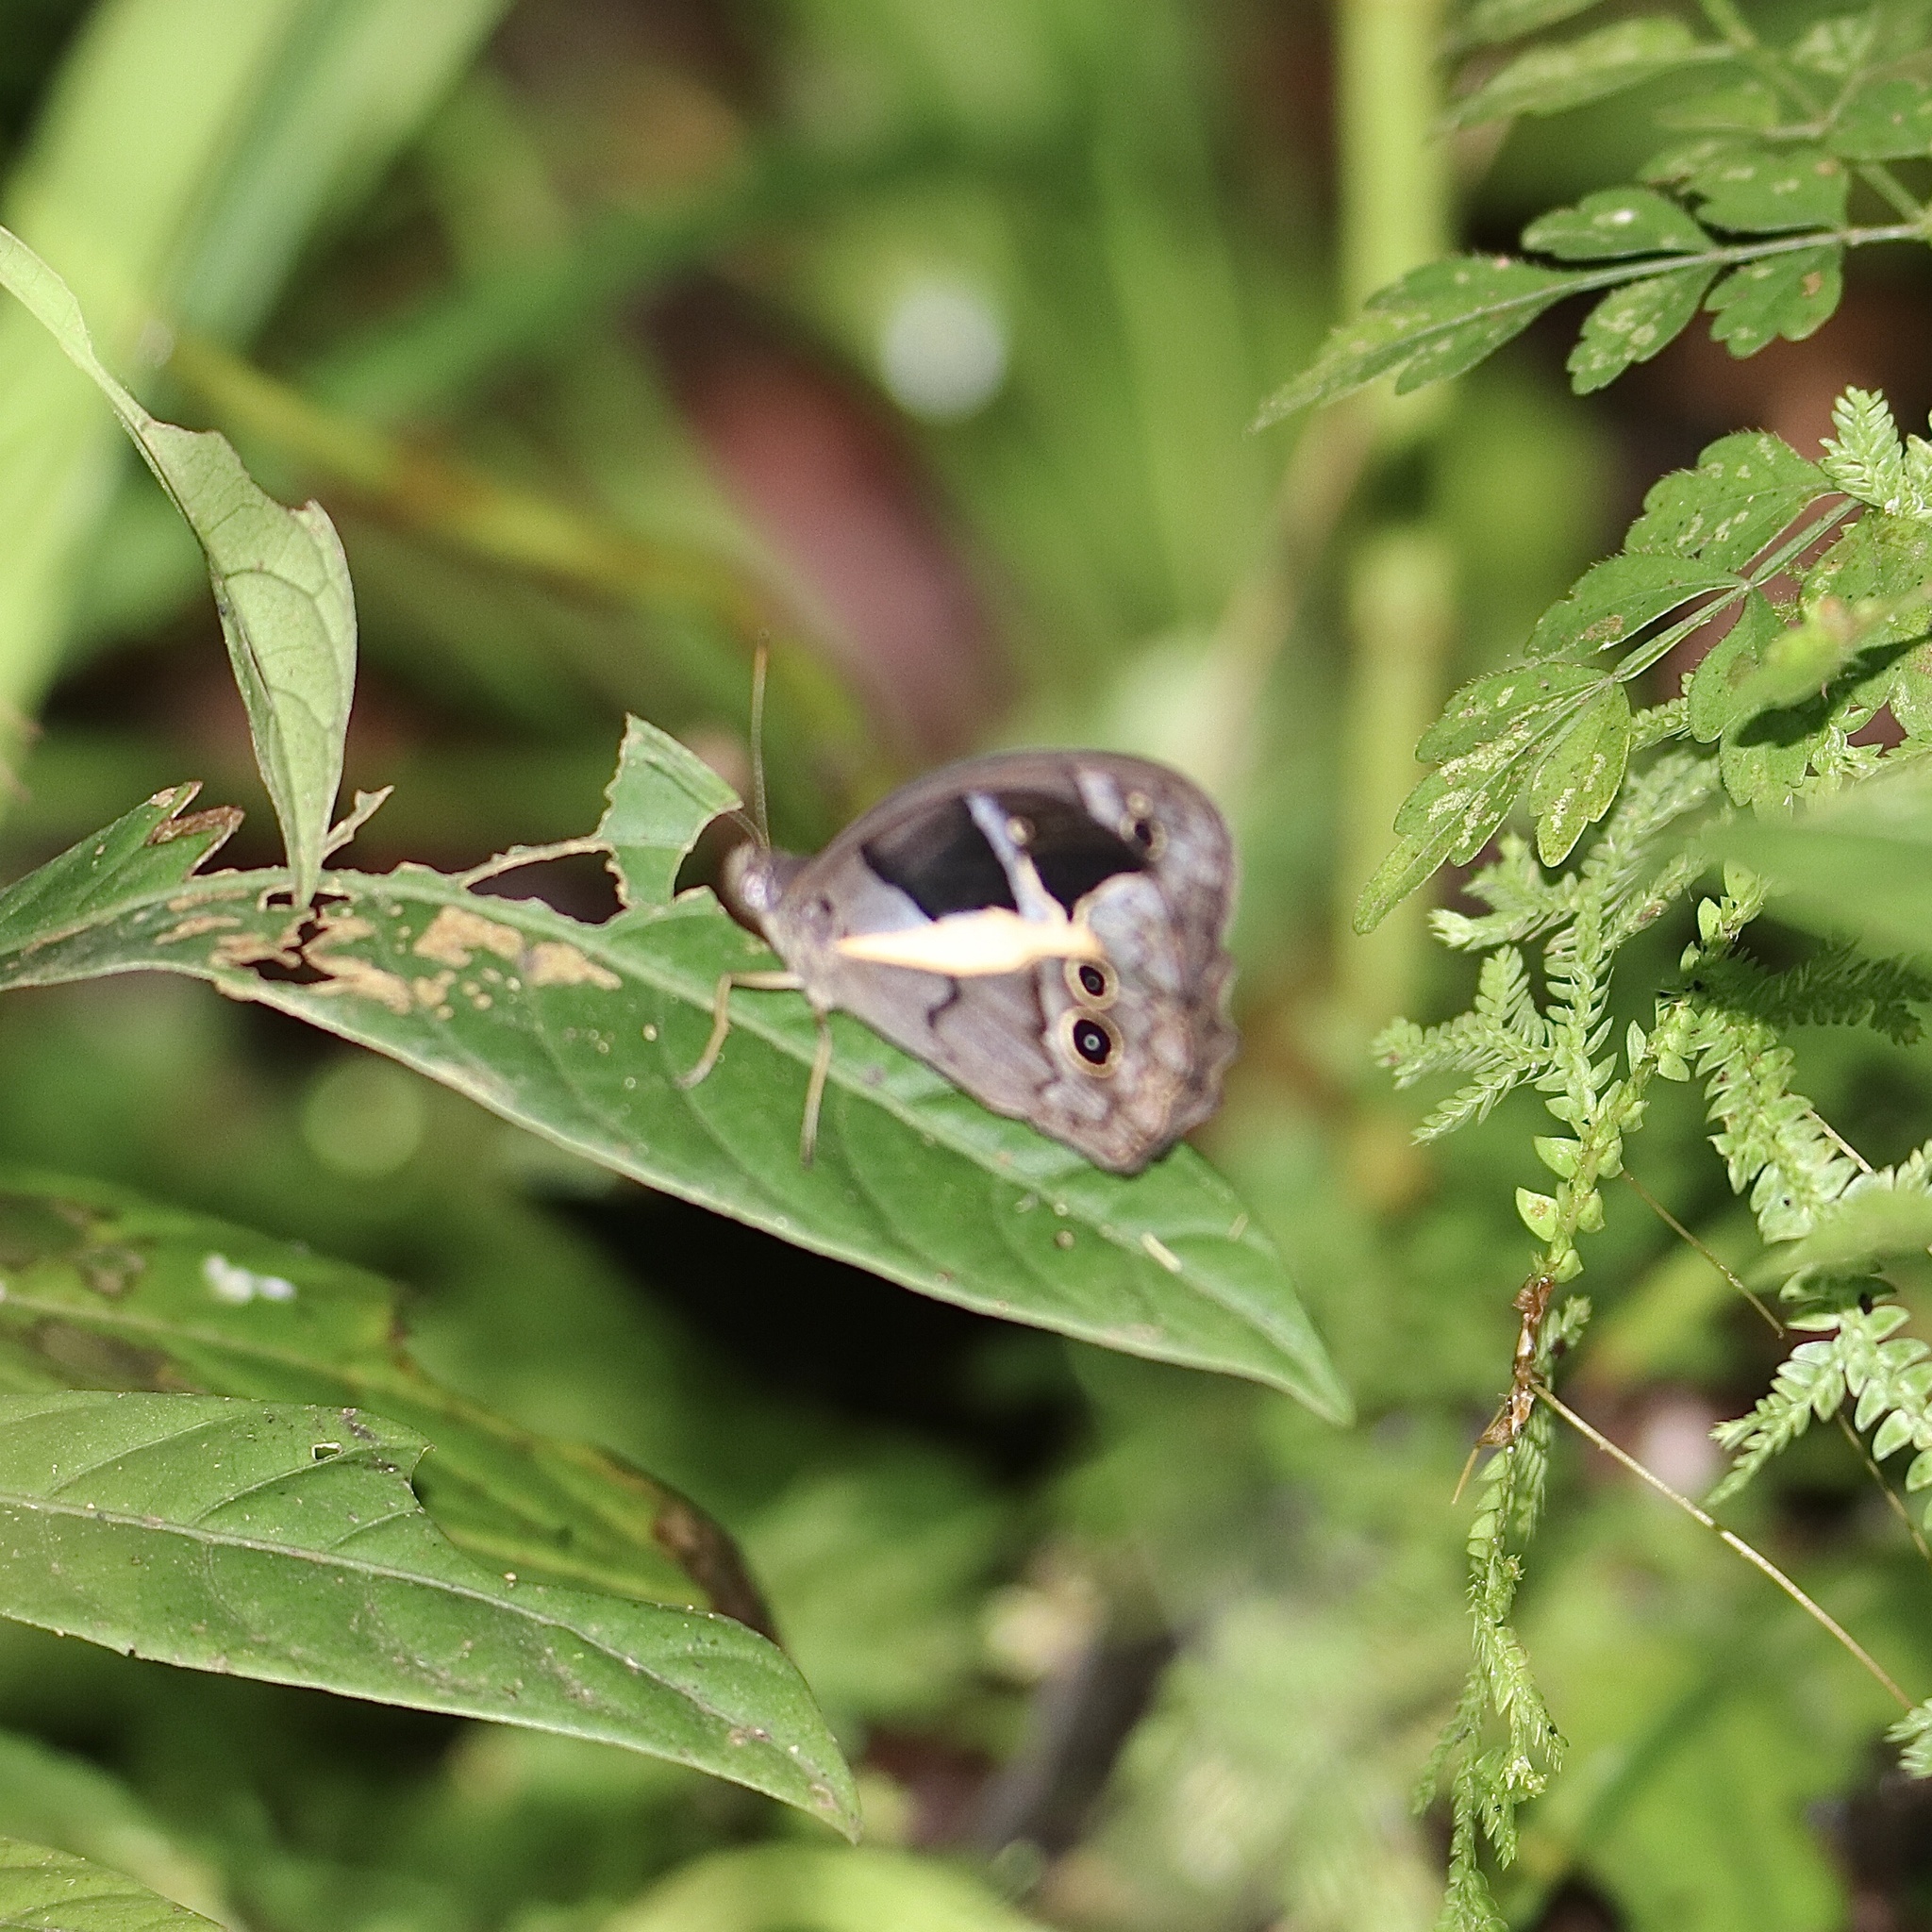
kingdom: Animalia
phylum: Arthropoda
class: Insecta
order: Lepidoptera
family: Nymphalidae
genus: Posttaygetis
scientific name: Posttaygetis penelea
